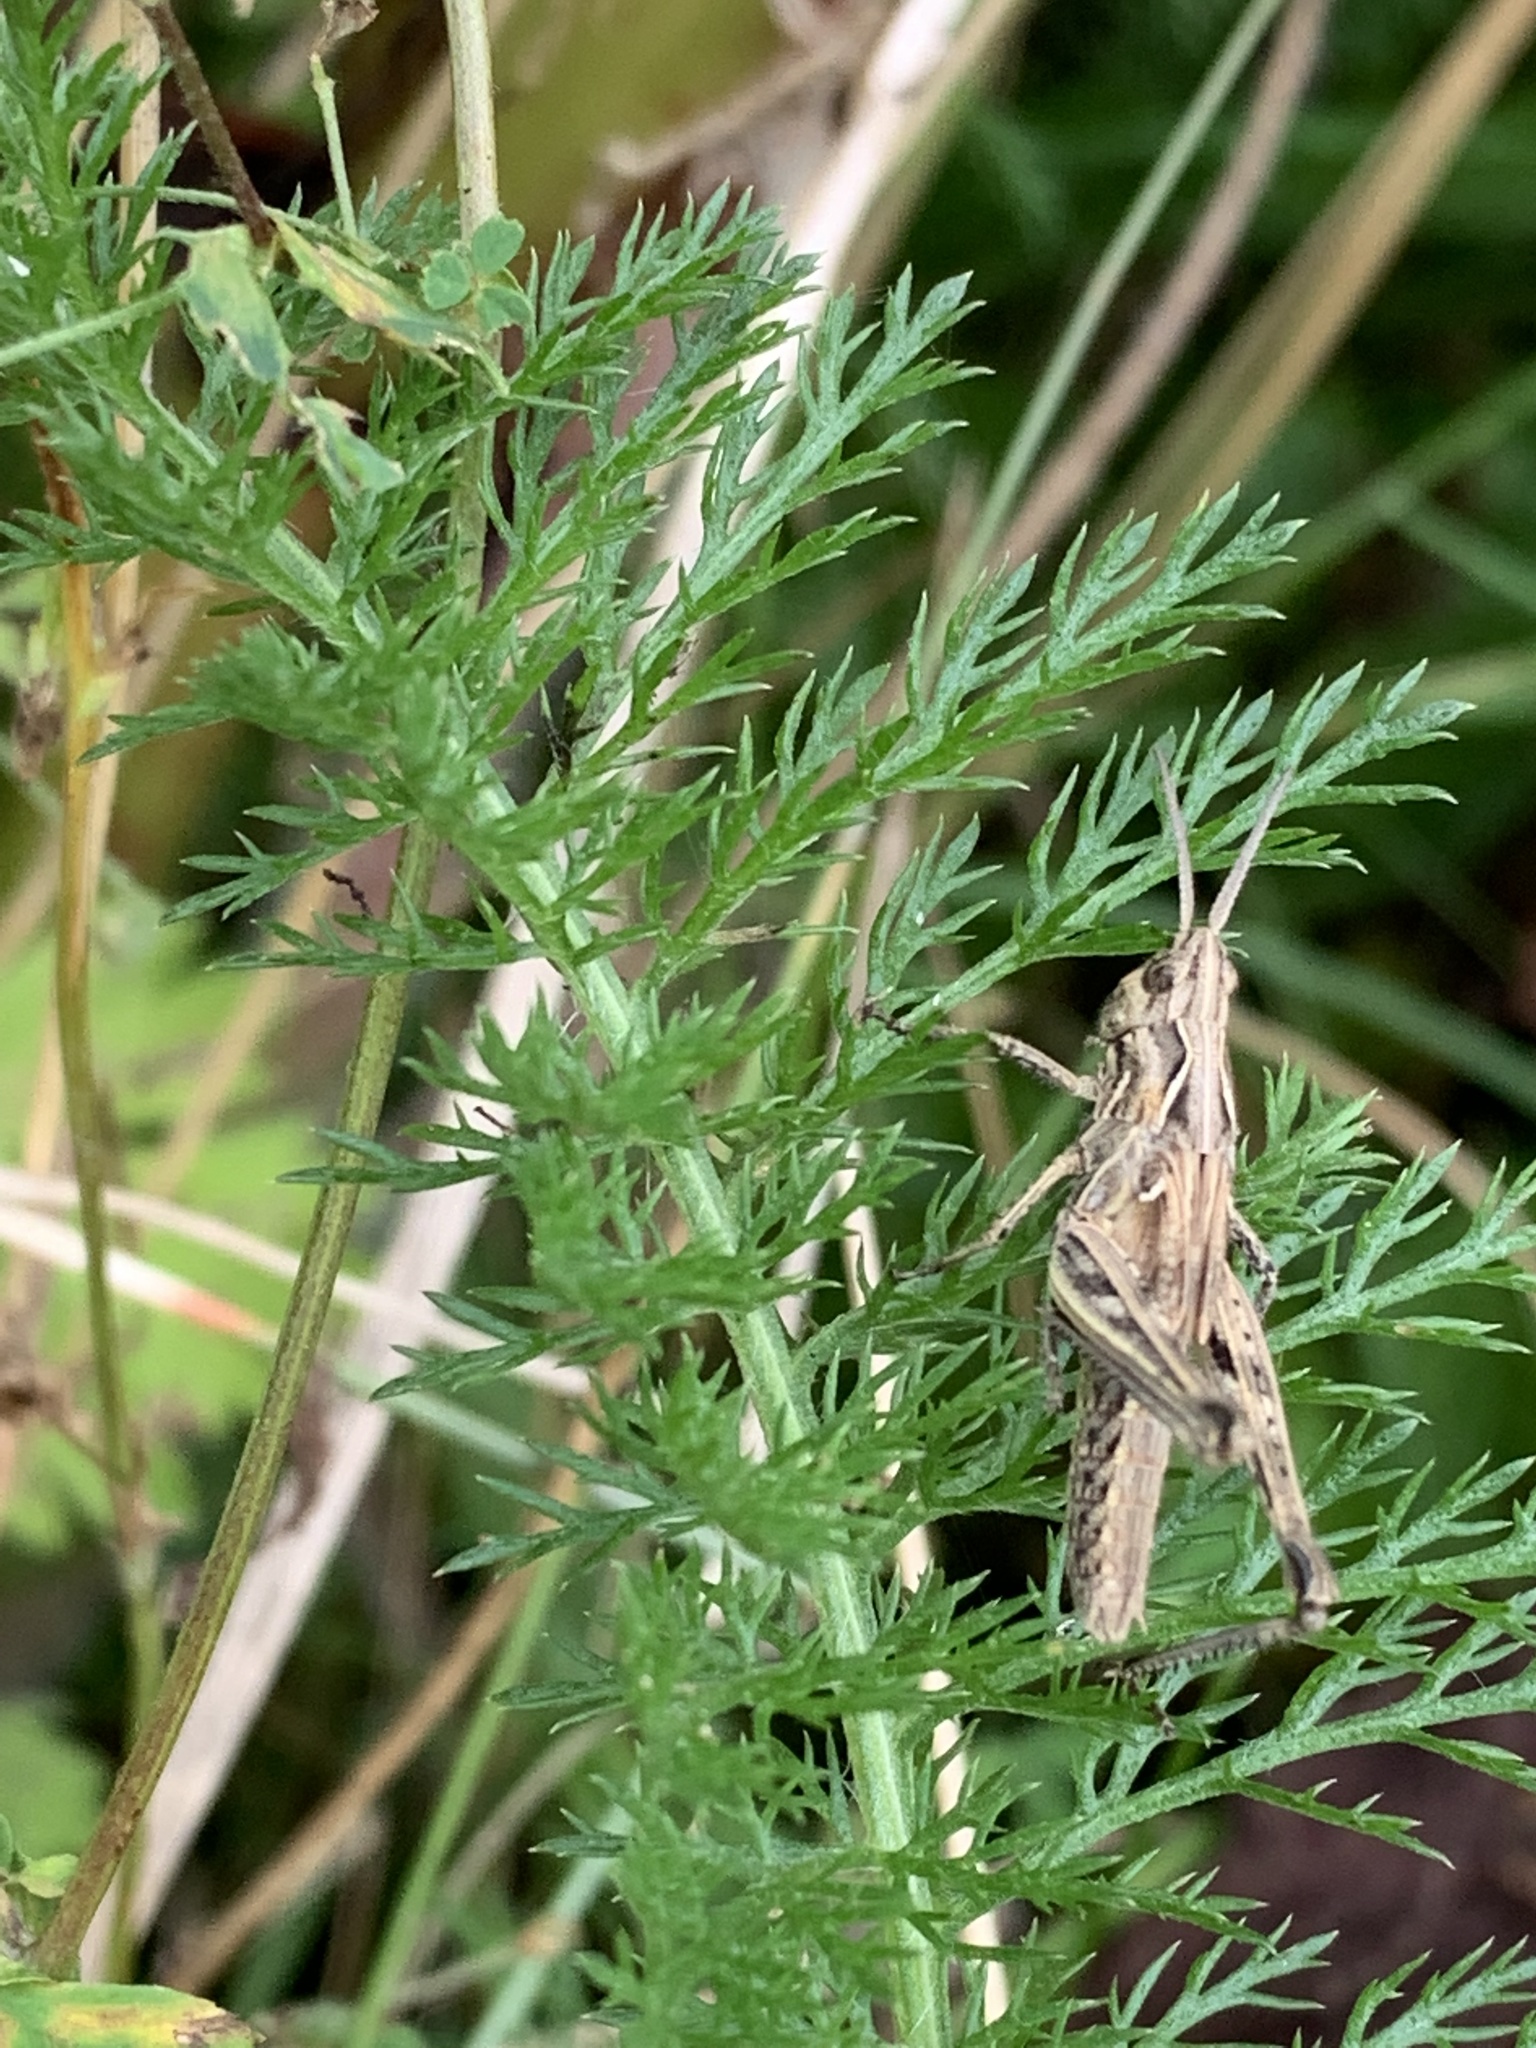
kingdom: Animalia
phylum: Arthropoda
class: Insecta
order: Orthoptera
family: Acrididae
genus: Chorthippus
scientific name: Chorthippus brunneus
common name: Field grasshopper
